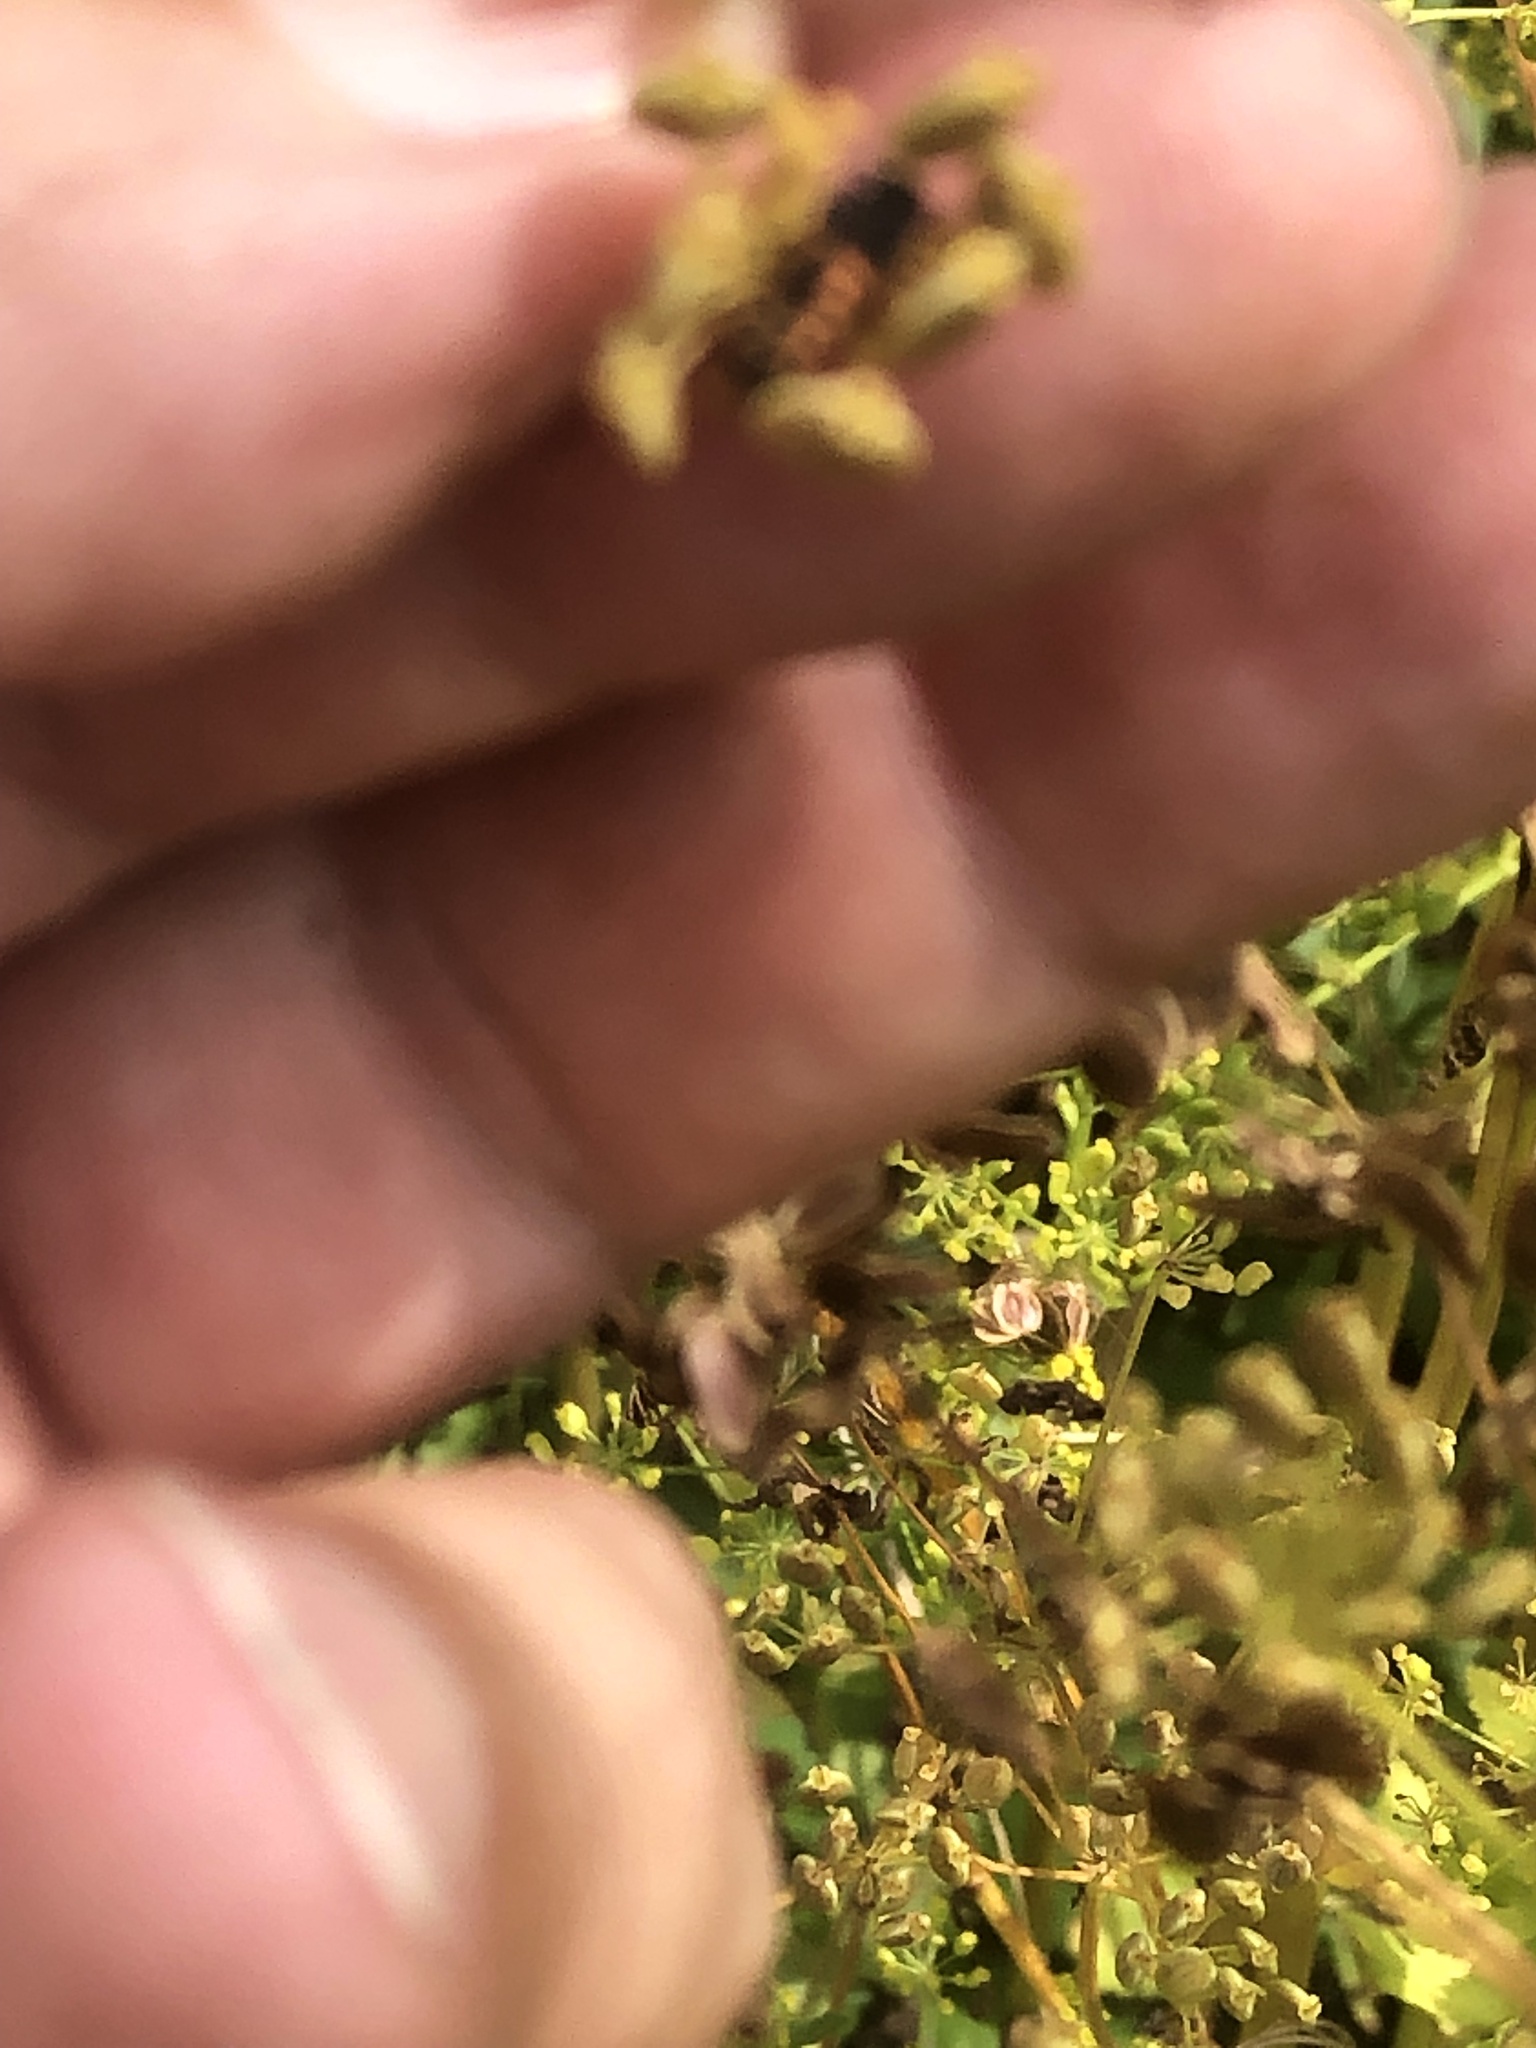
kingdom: Animalia
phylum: Arthropoda
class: Insecta
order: Coleoptera
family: Coccinellidae
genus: Harmonia
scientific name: Harmonia axyridis
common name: Harlequin ladybird
